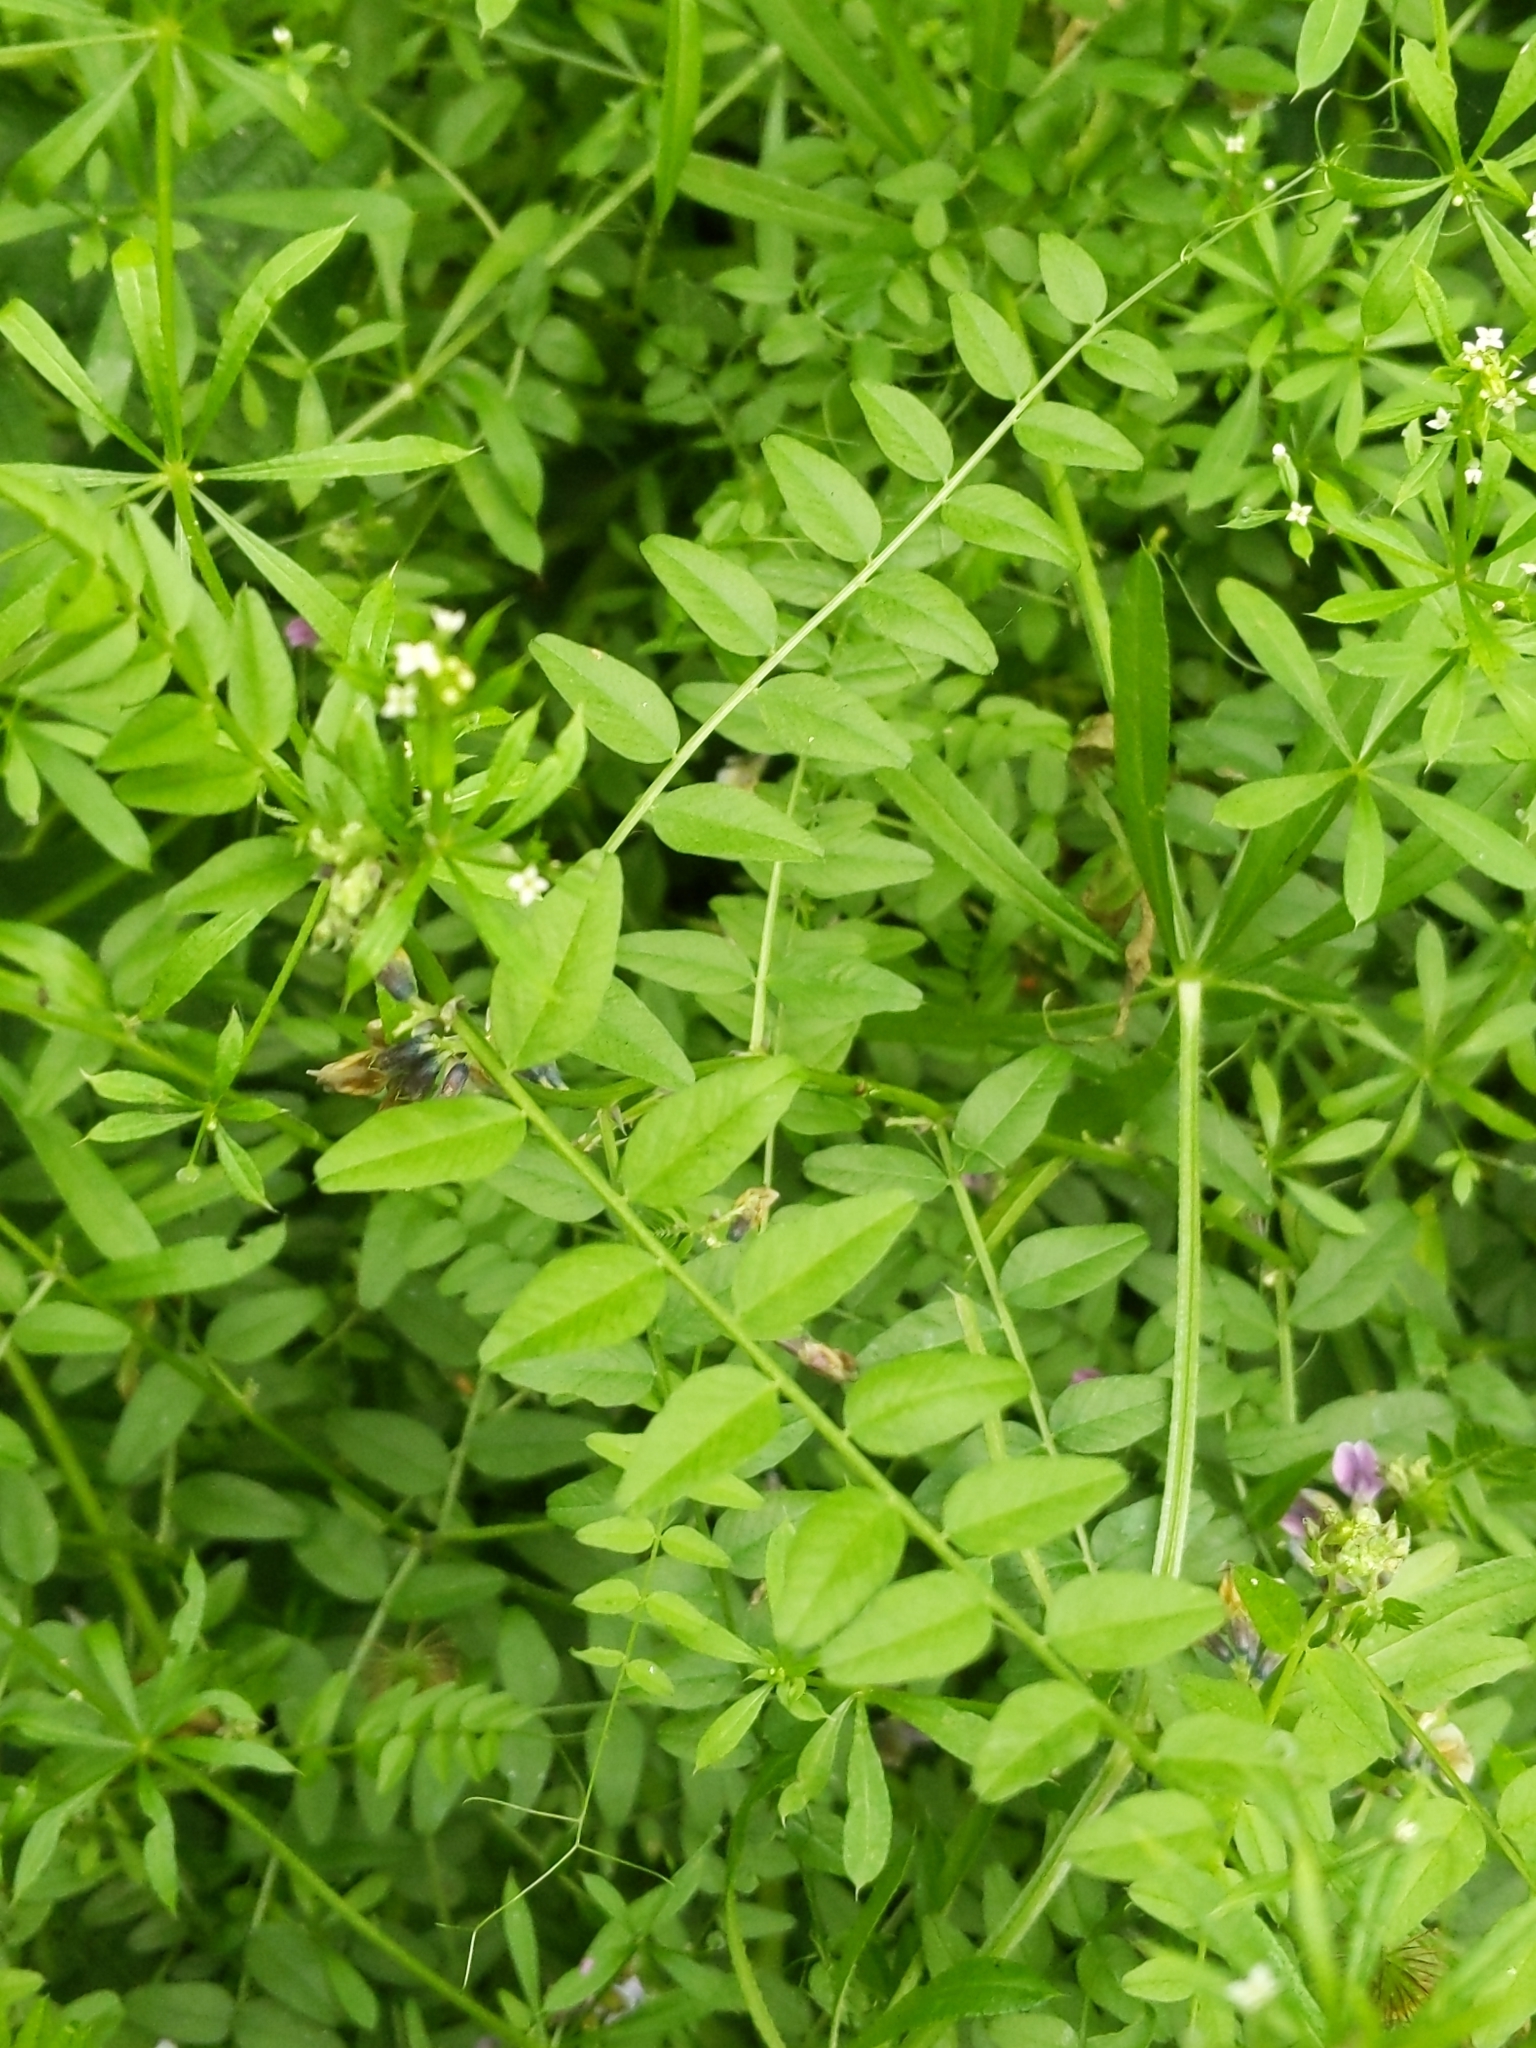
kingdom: Plantae
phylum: Tracheophyta
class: Magnoliopsida
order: Fabales
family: Fabaceae
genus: Vicia
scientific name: Vicia sepium
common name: Bush vetch
